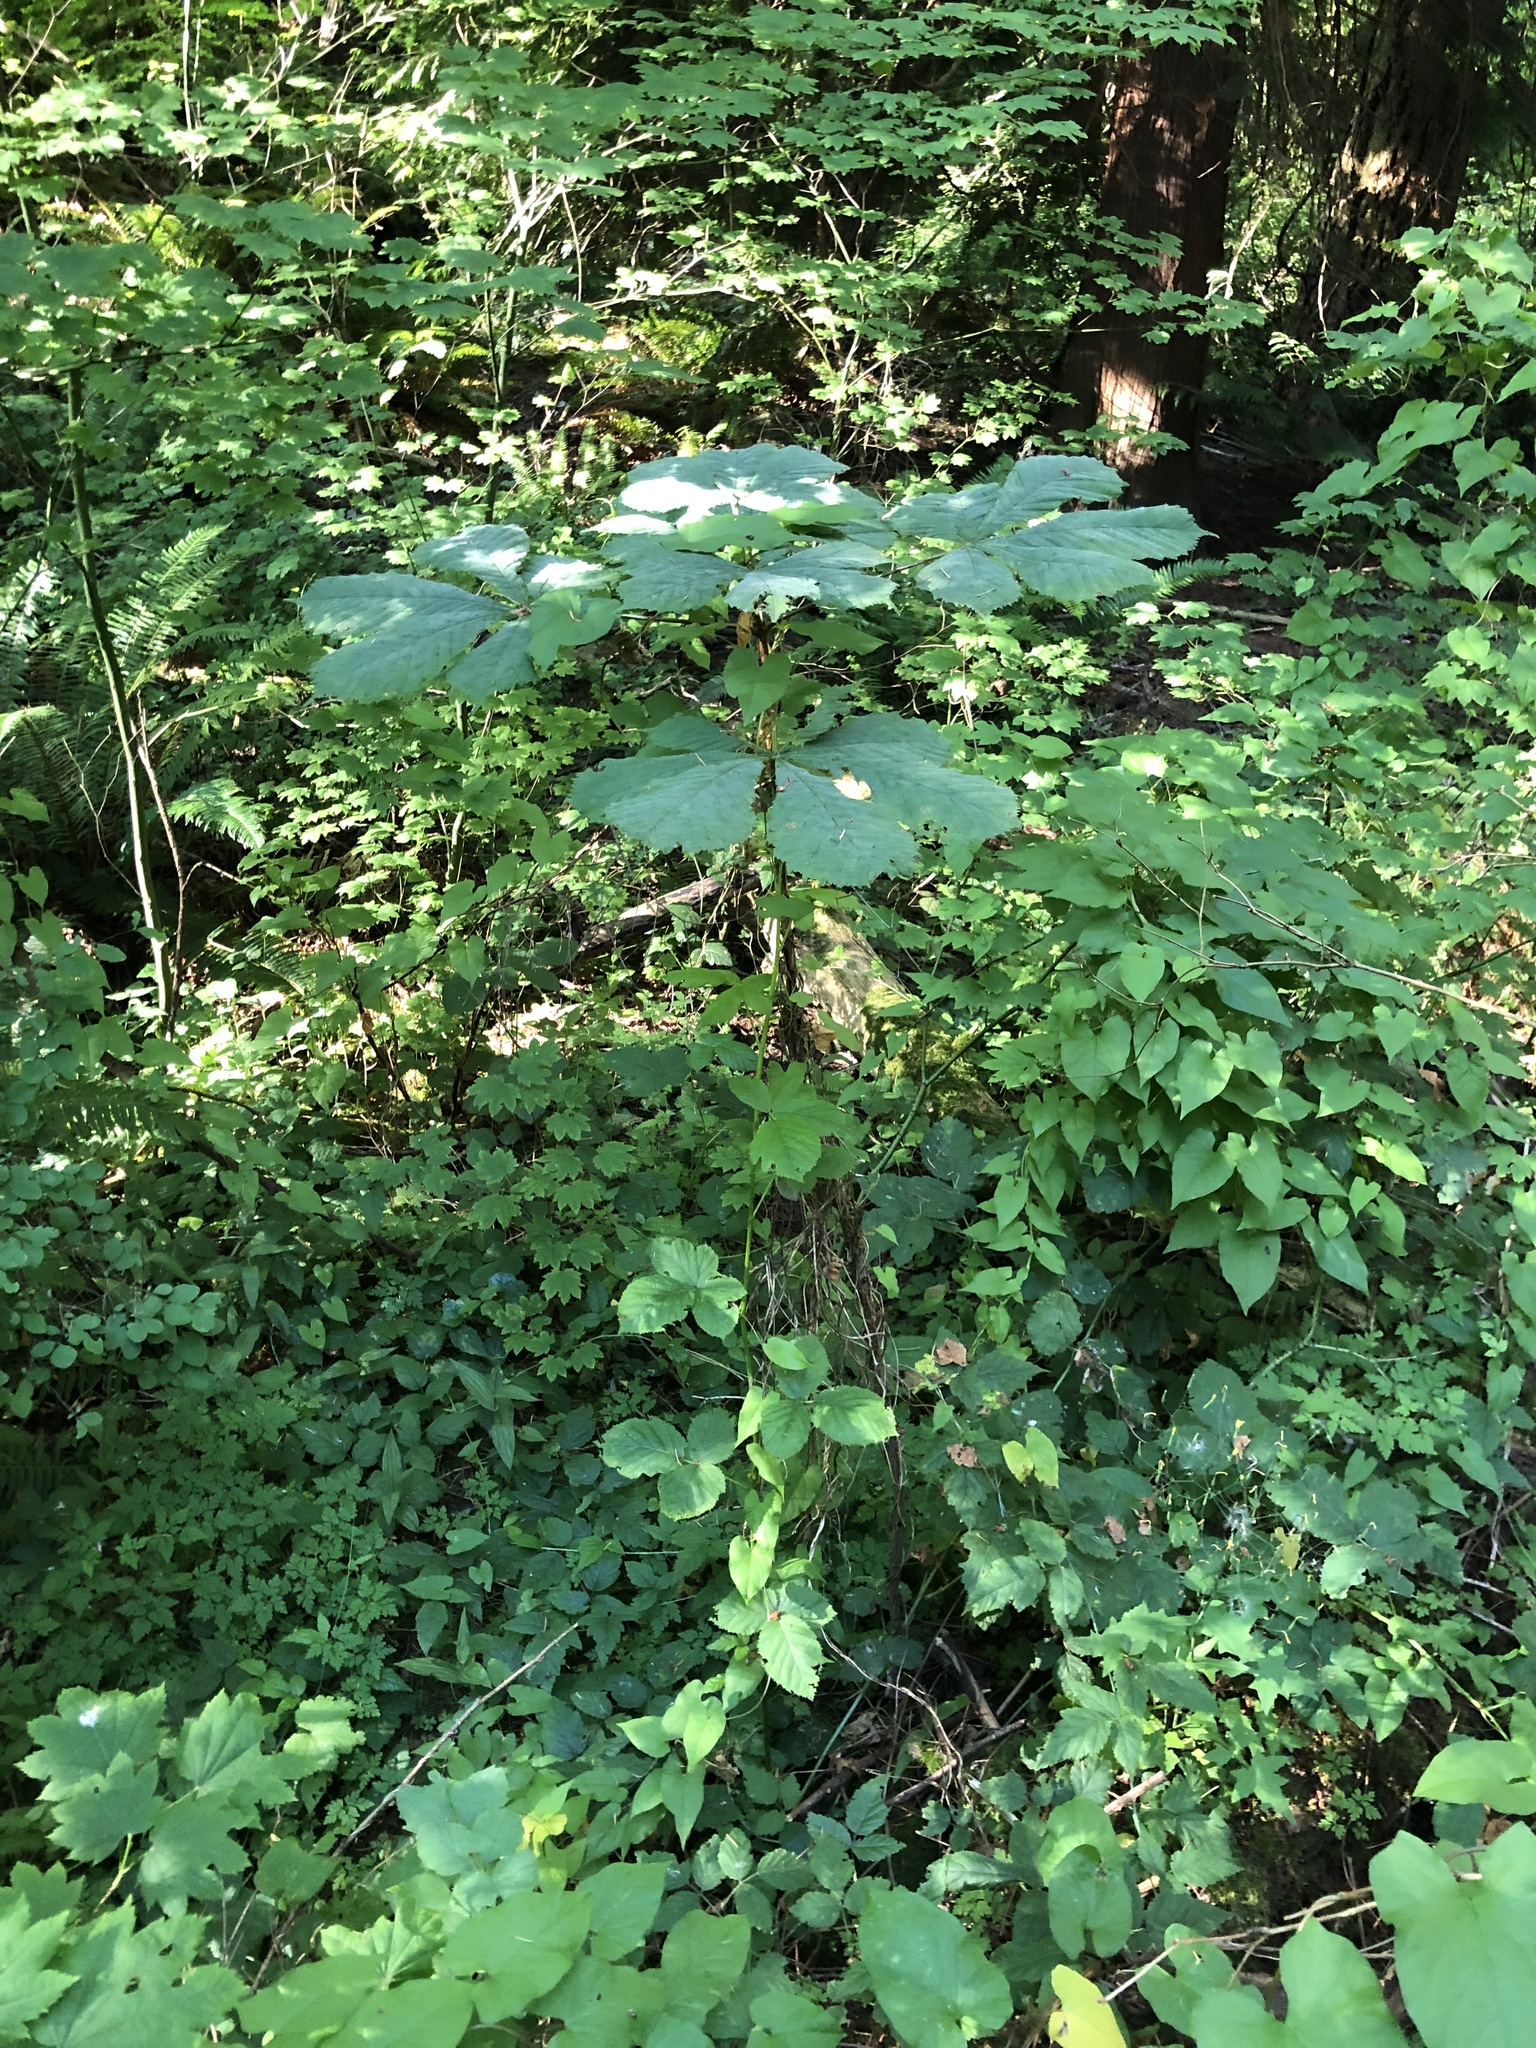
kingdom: Plantae
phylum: Tracheophyta
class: Magnoliopsida
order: Sapindales
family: Sapindaceae
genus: Aesculus
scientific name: Aesculus hippocastanum
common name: Horse-chestnut
